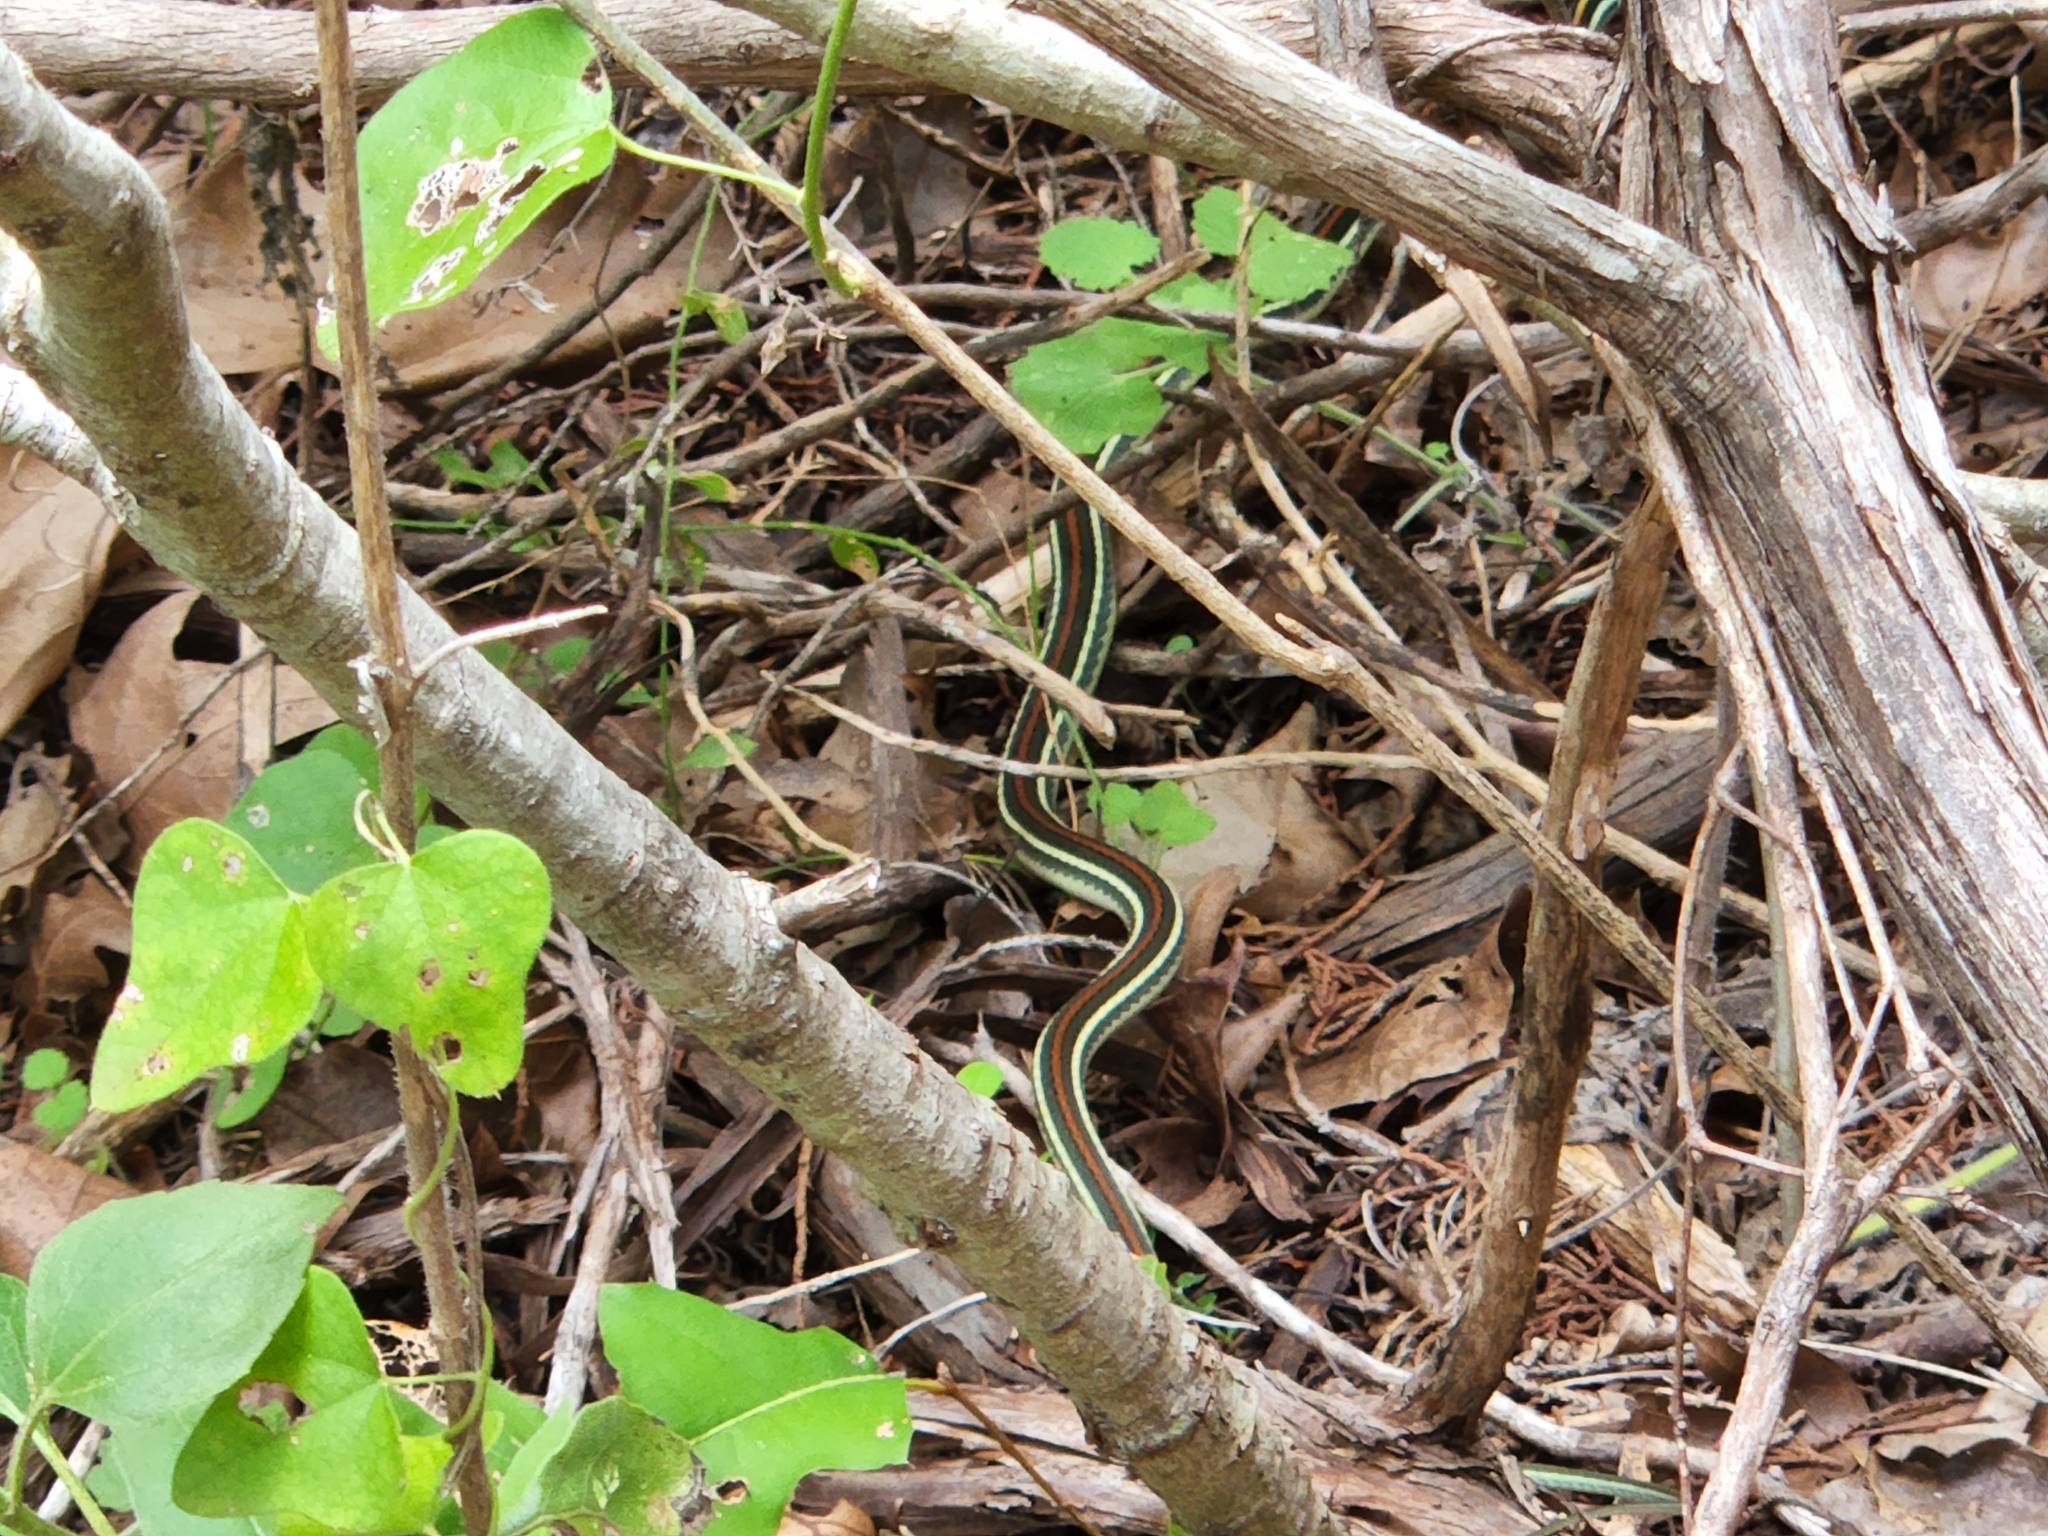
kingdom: Animalia
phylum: Chordata
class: Squamata
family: Colubridae
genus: Thamnophis
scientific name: Thamnophis proximus
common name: Western ribbon snake
